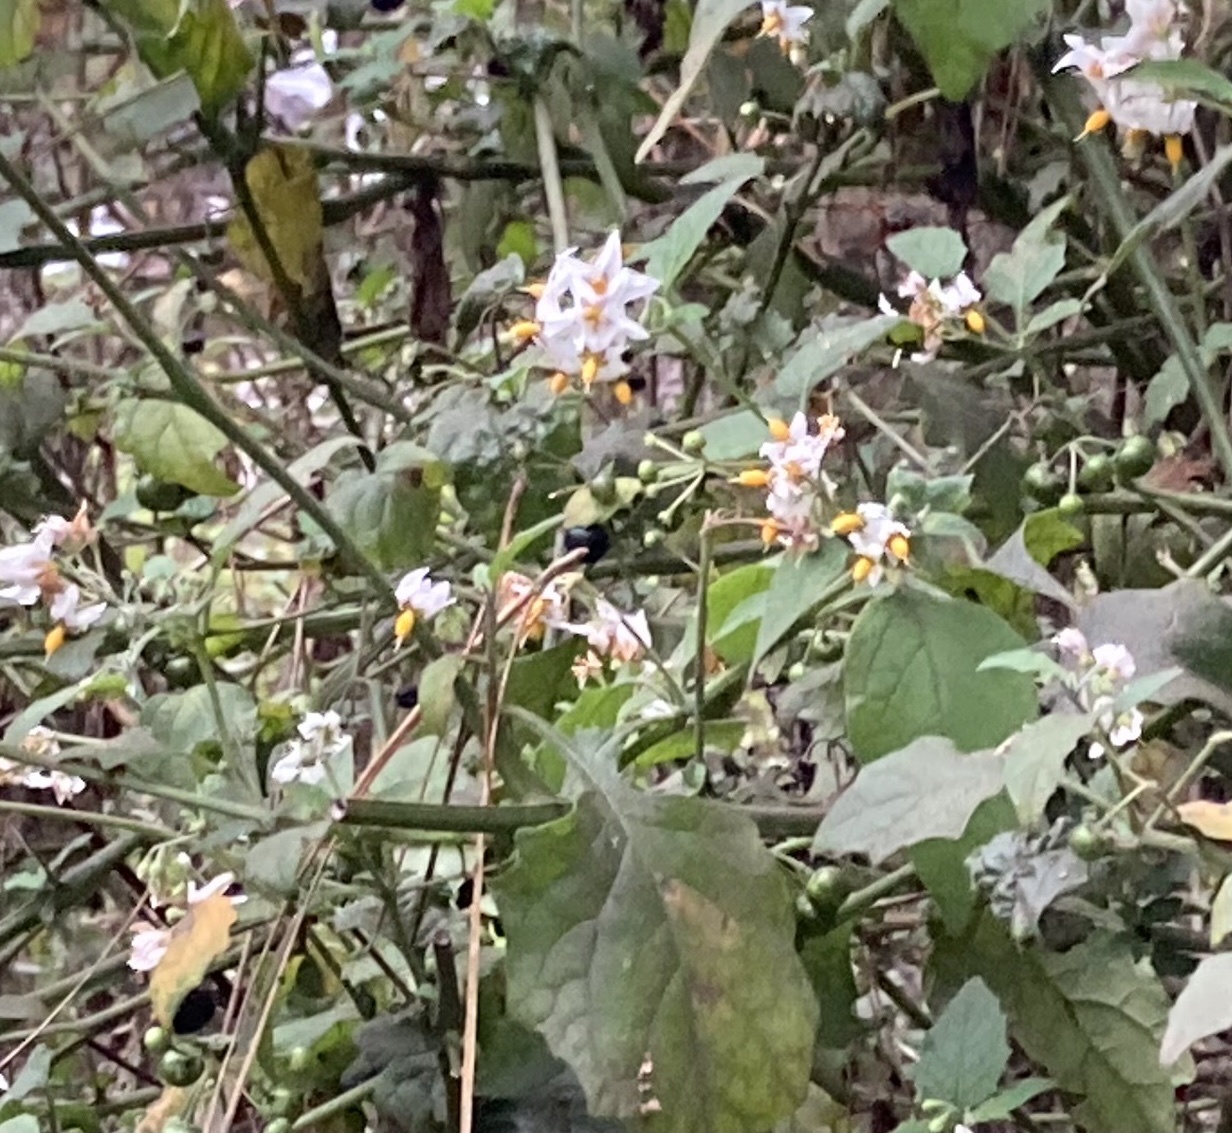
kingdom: Plantae
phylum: Tracheophyta
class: Magnoliopsida
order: Solanales
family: Solanaceae
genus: Solanum
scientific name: Solanum douglasii
